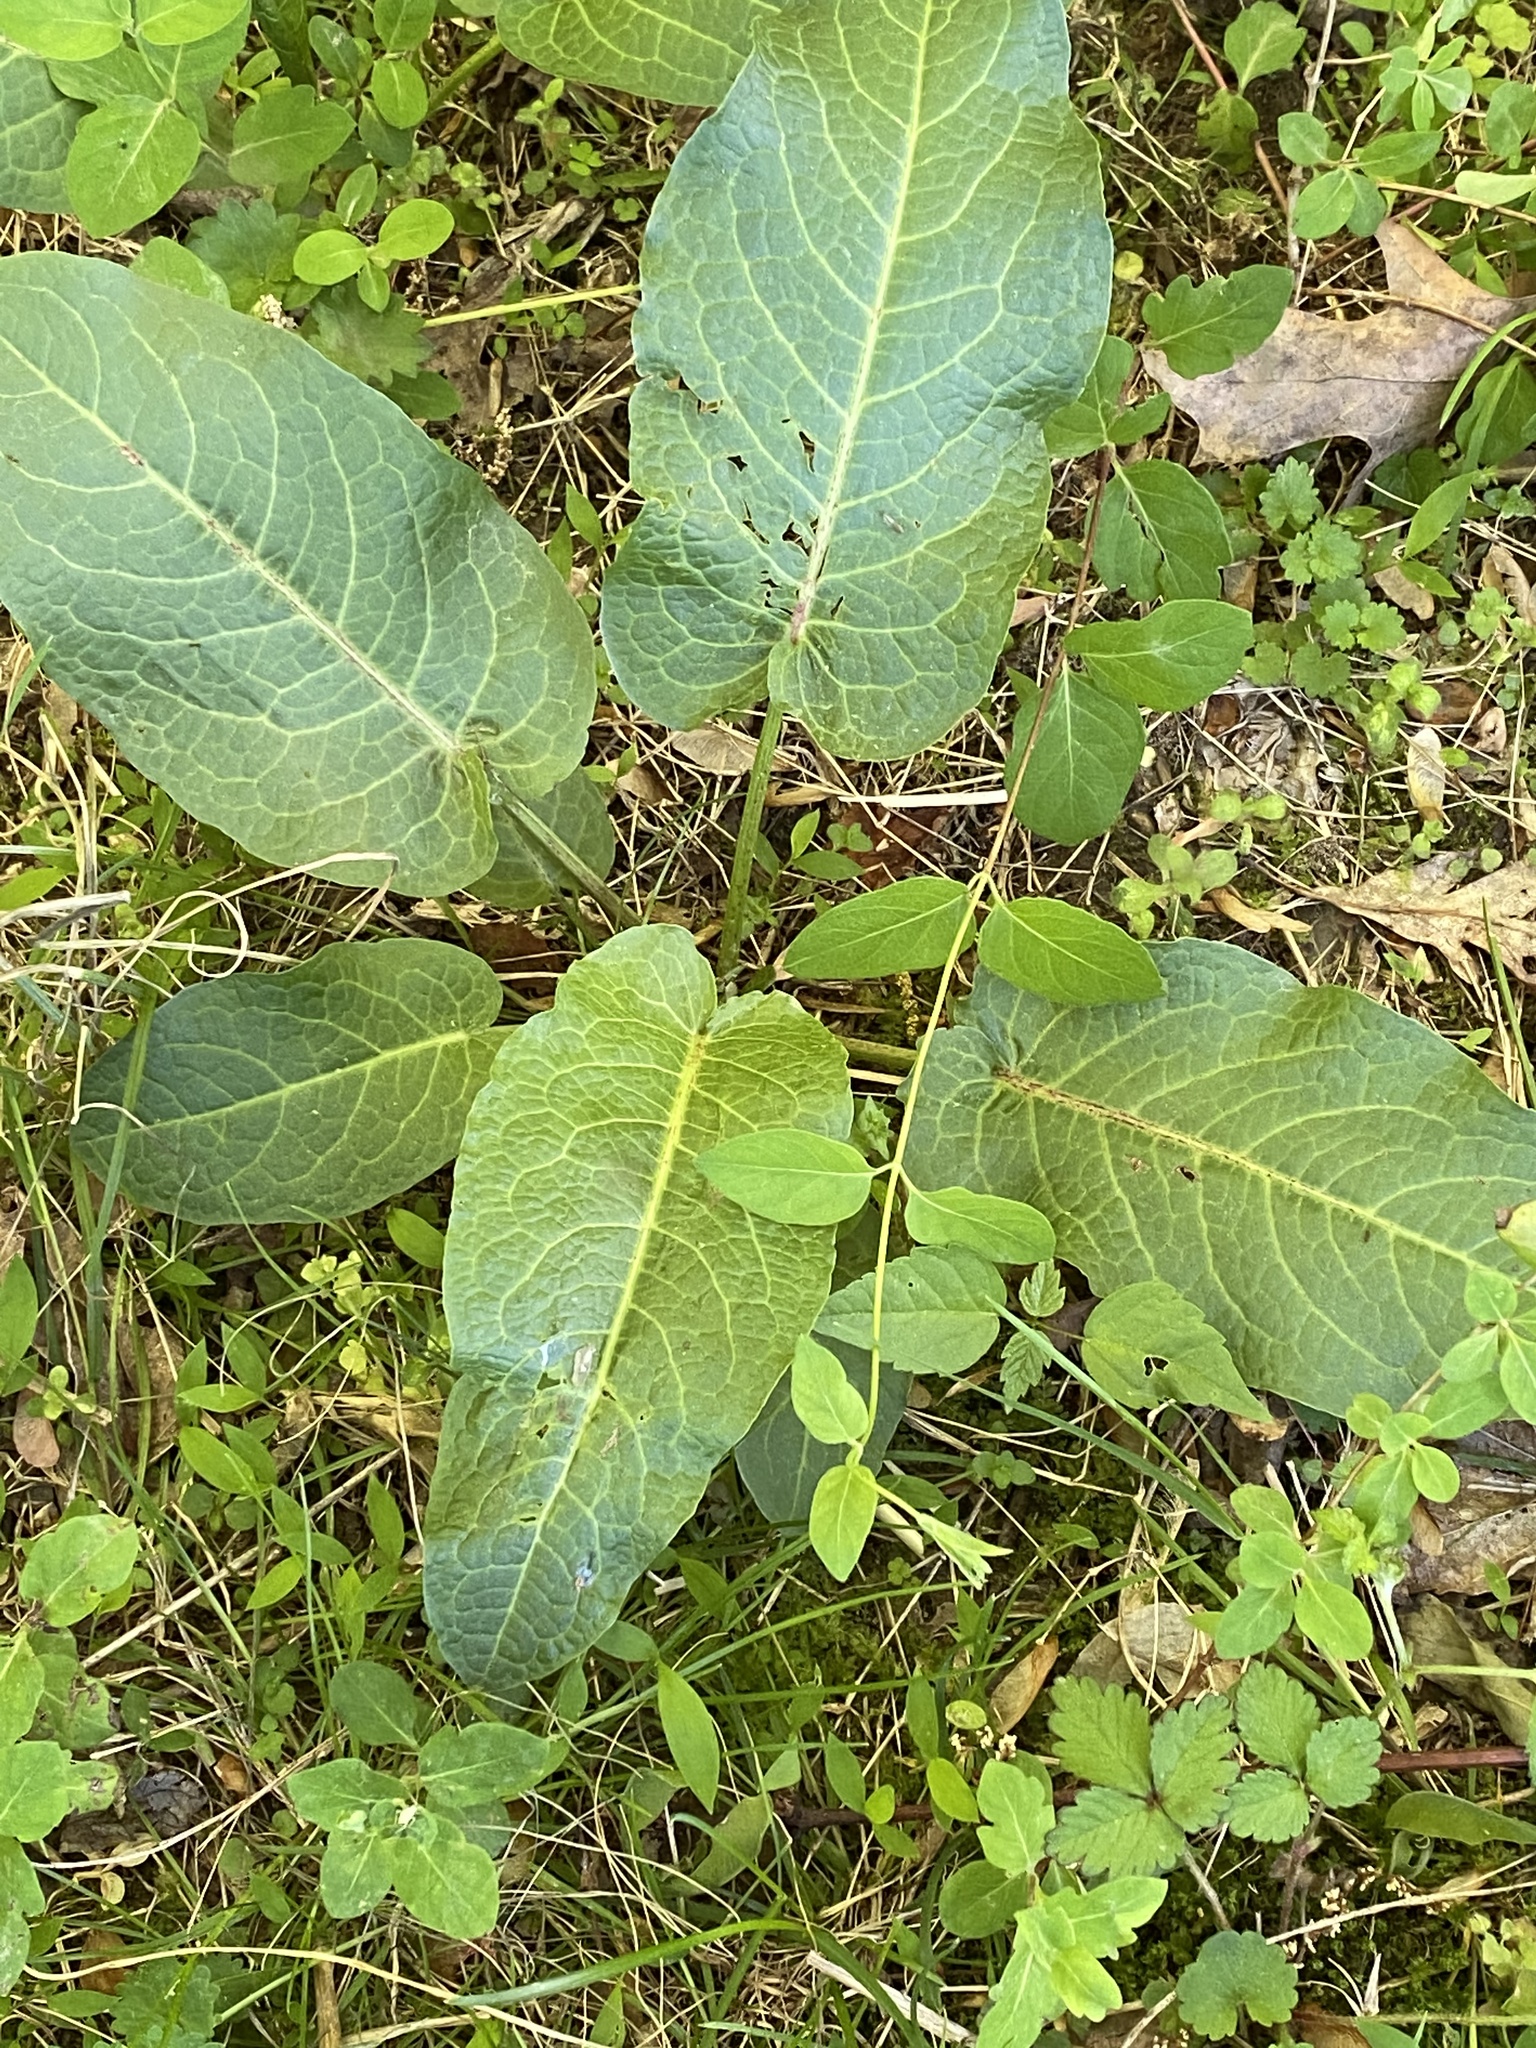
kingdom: Plantae
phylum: Tracheophyta
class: Magnoliopsida
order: Caryophyllales
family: Polygonaceae
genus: Rumex
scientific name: Rumex obtusifolius
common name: Bitter dock
